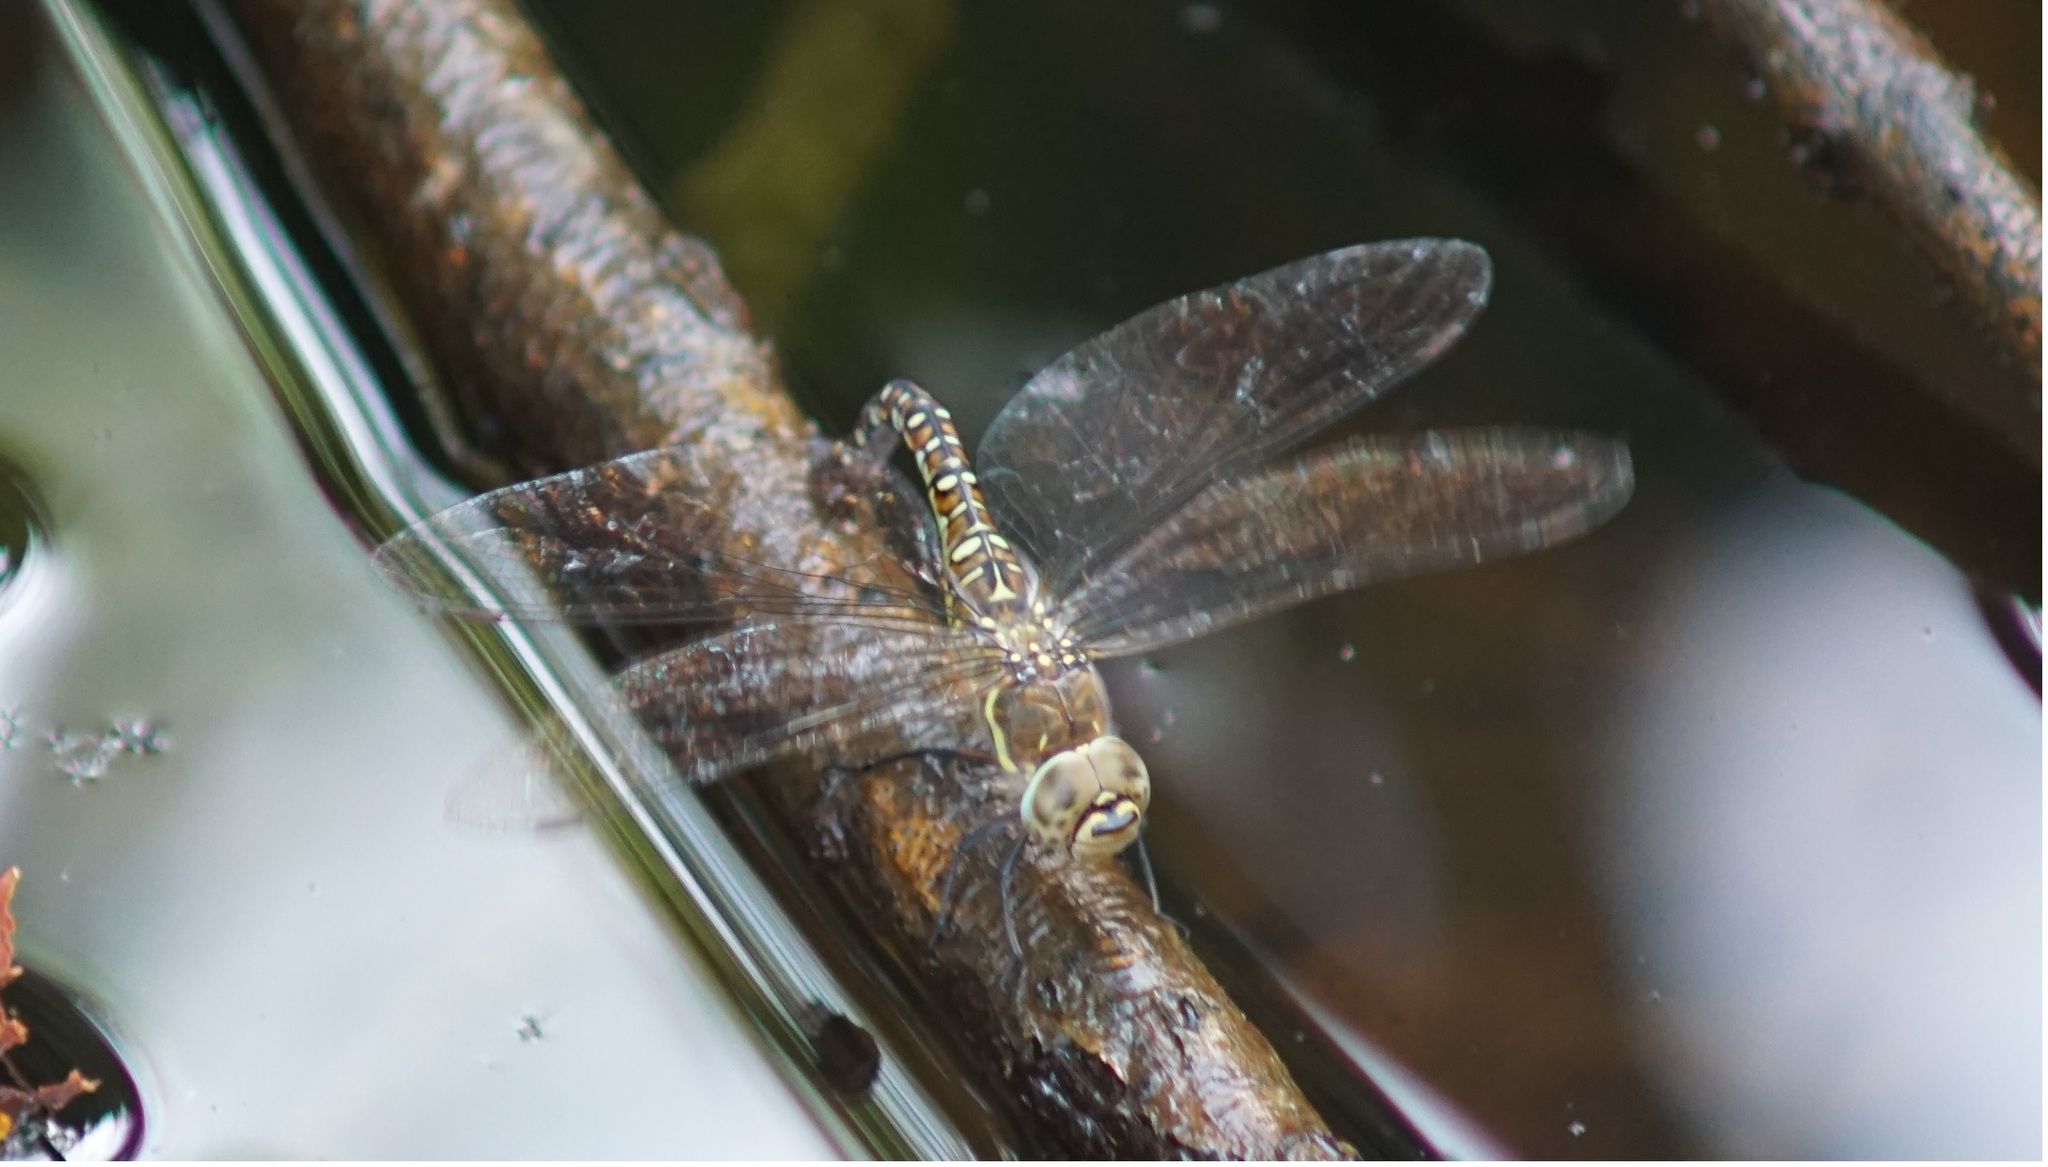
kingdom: Animalia
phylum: Arthropoda
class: Insecta
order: Odonata
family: Aeshnidae
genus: Aeshna
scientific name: Aeshna mixta
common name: Migrant hawker
